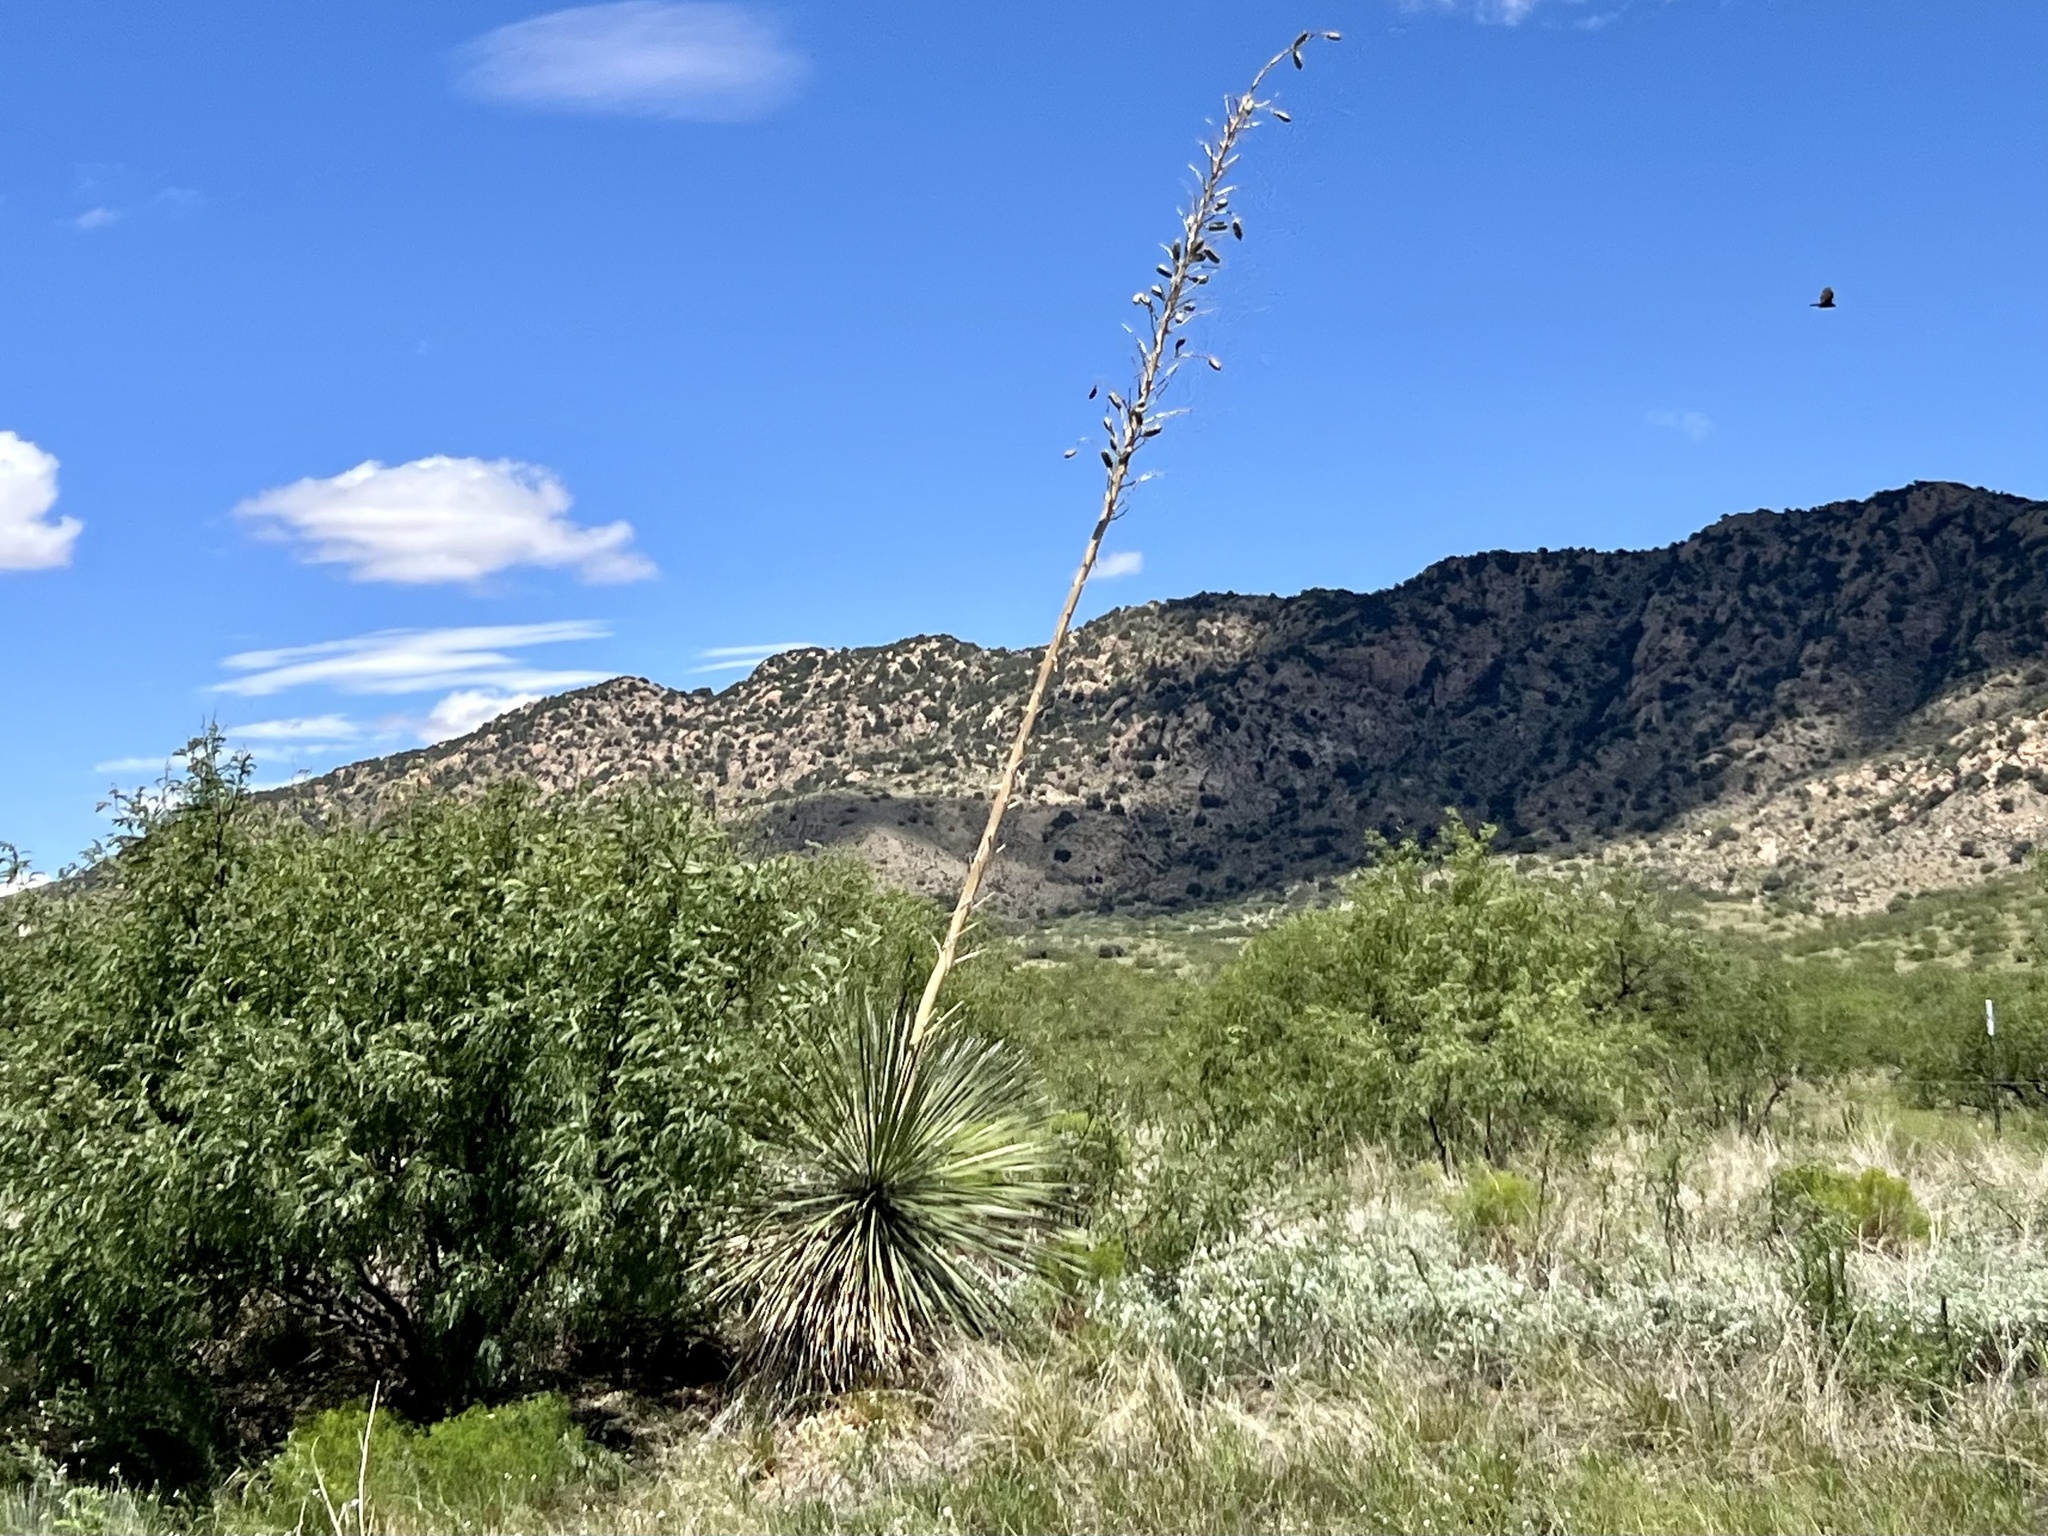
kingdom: Plantae
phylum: Tracheophyta
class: Liliopsida
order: Asparagales
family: Asparagaceae
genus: Yucca
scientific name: Yucca elata
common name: Palmella
